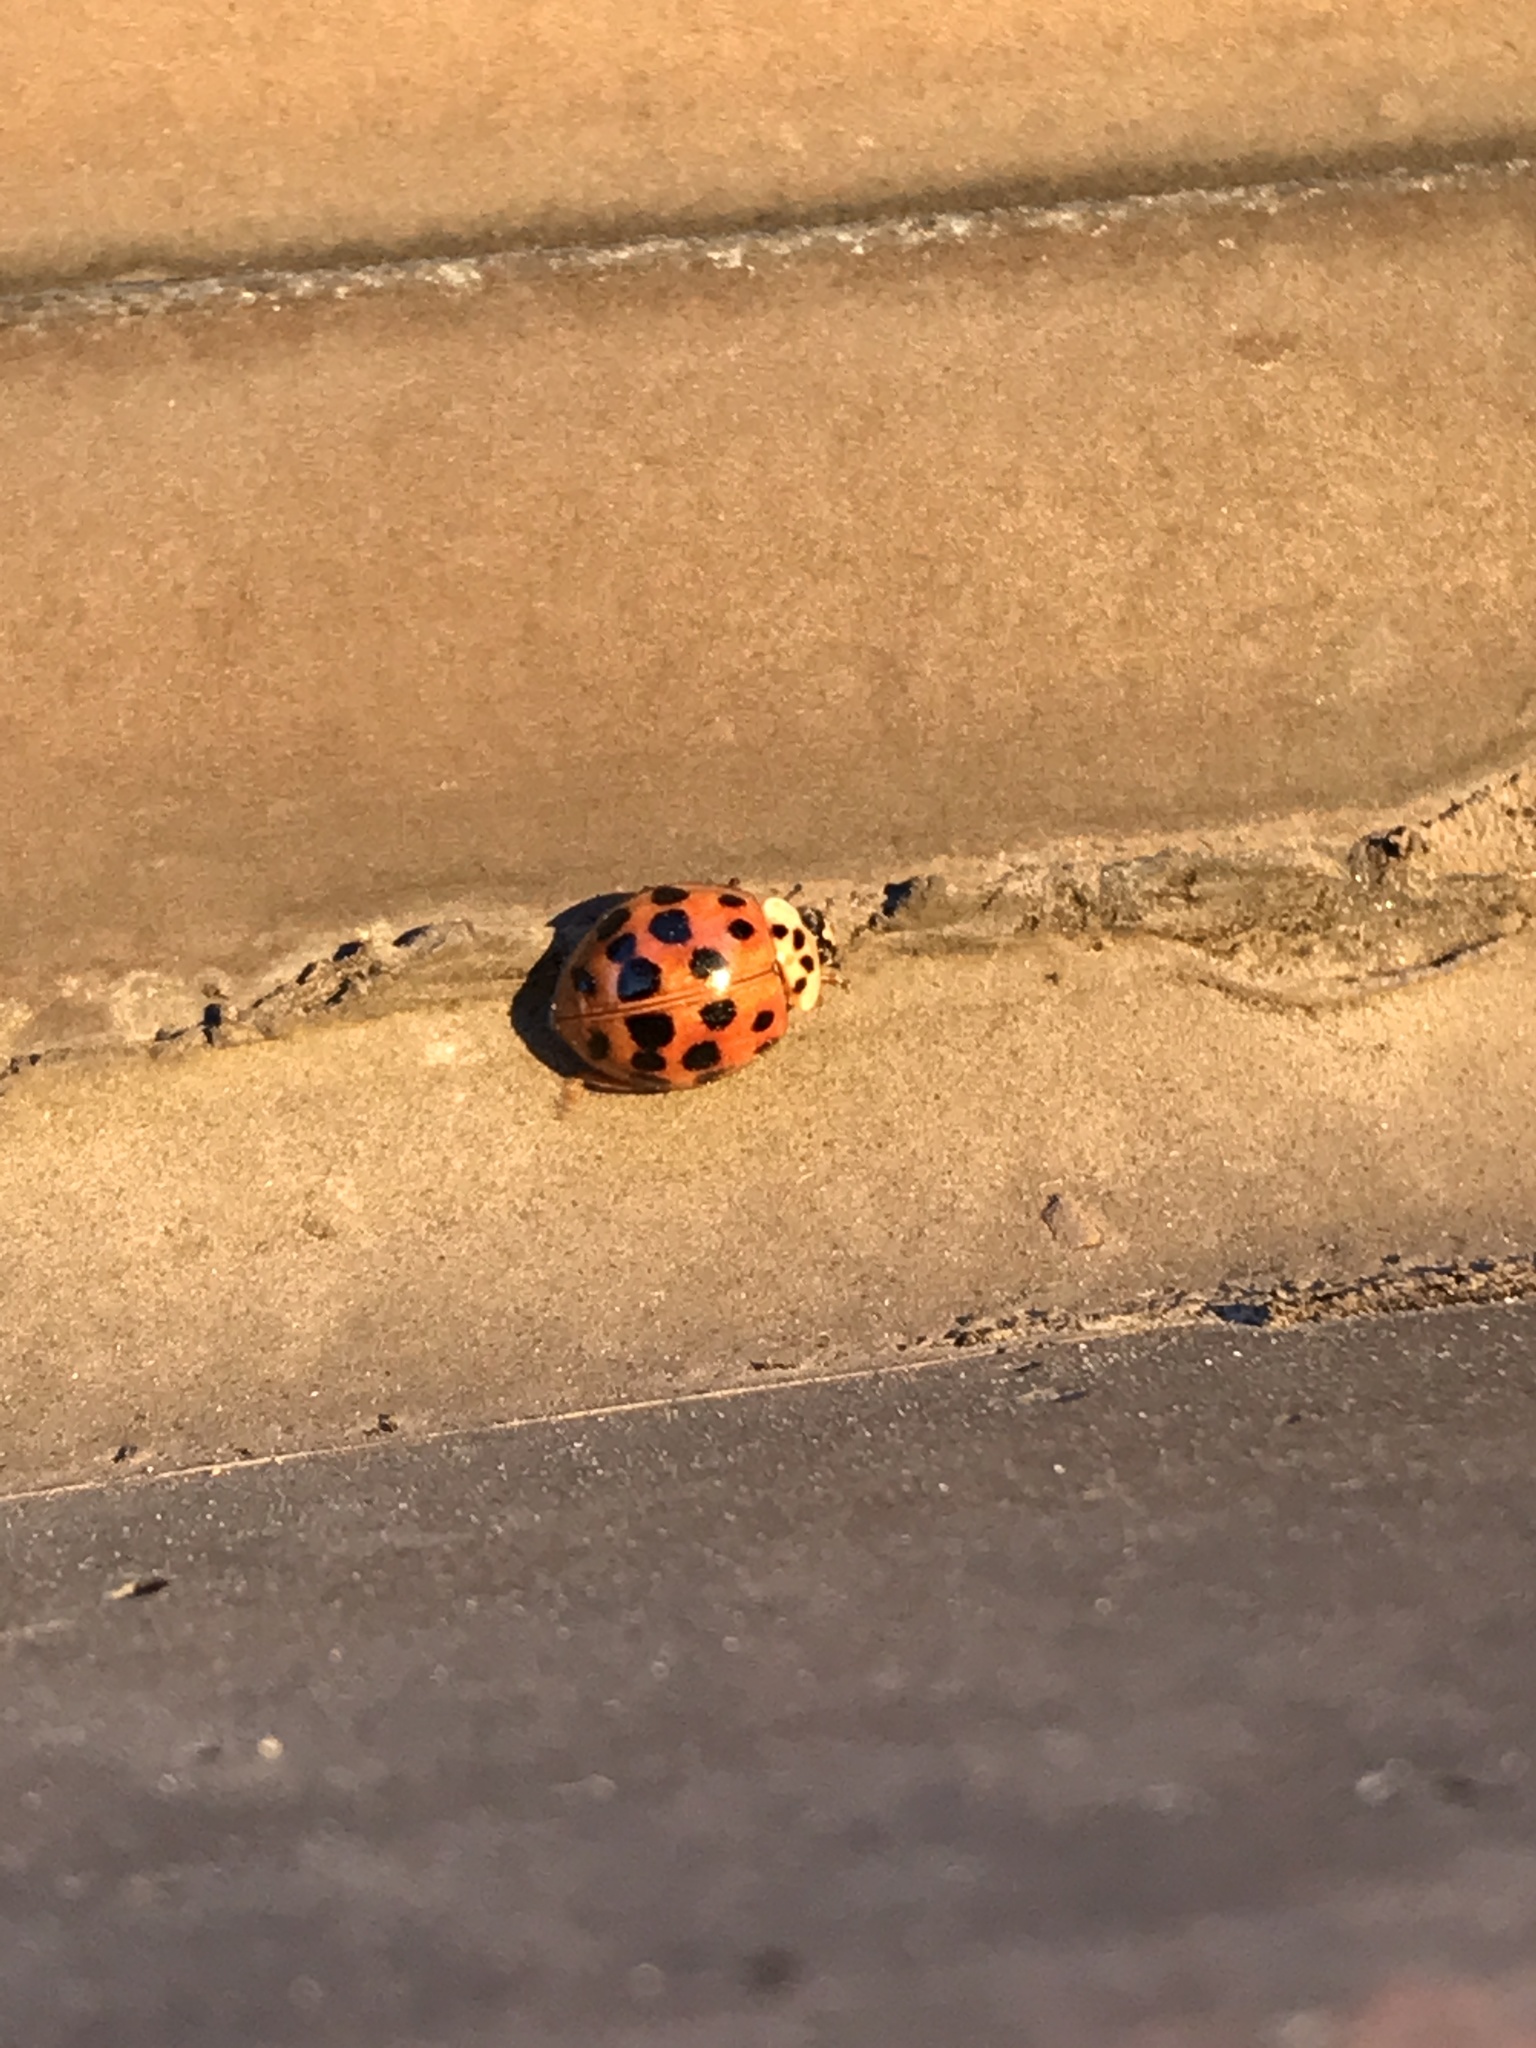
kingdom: Animalia
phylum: Arthropoda
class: Insecta
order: Coleoptera
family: Coccinellidae
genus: Harmonia
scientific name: Harmonia axyridis
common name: Harlequin ladybird
